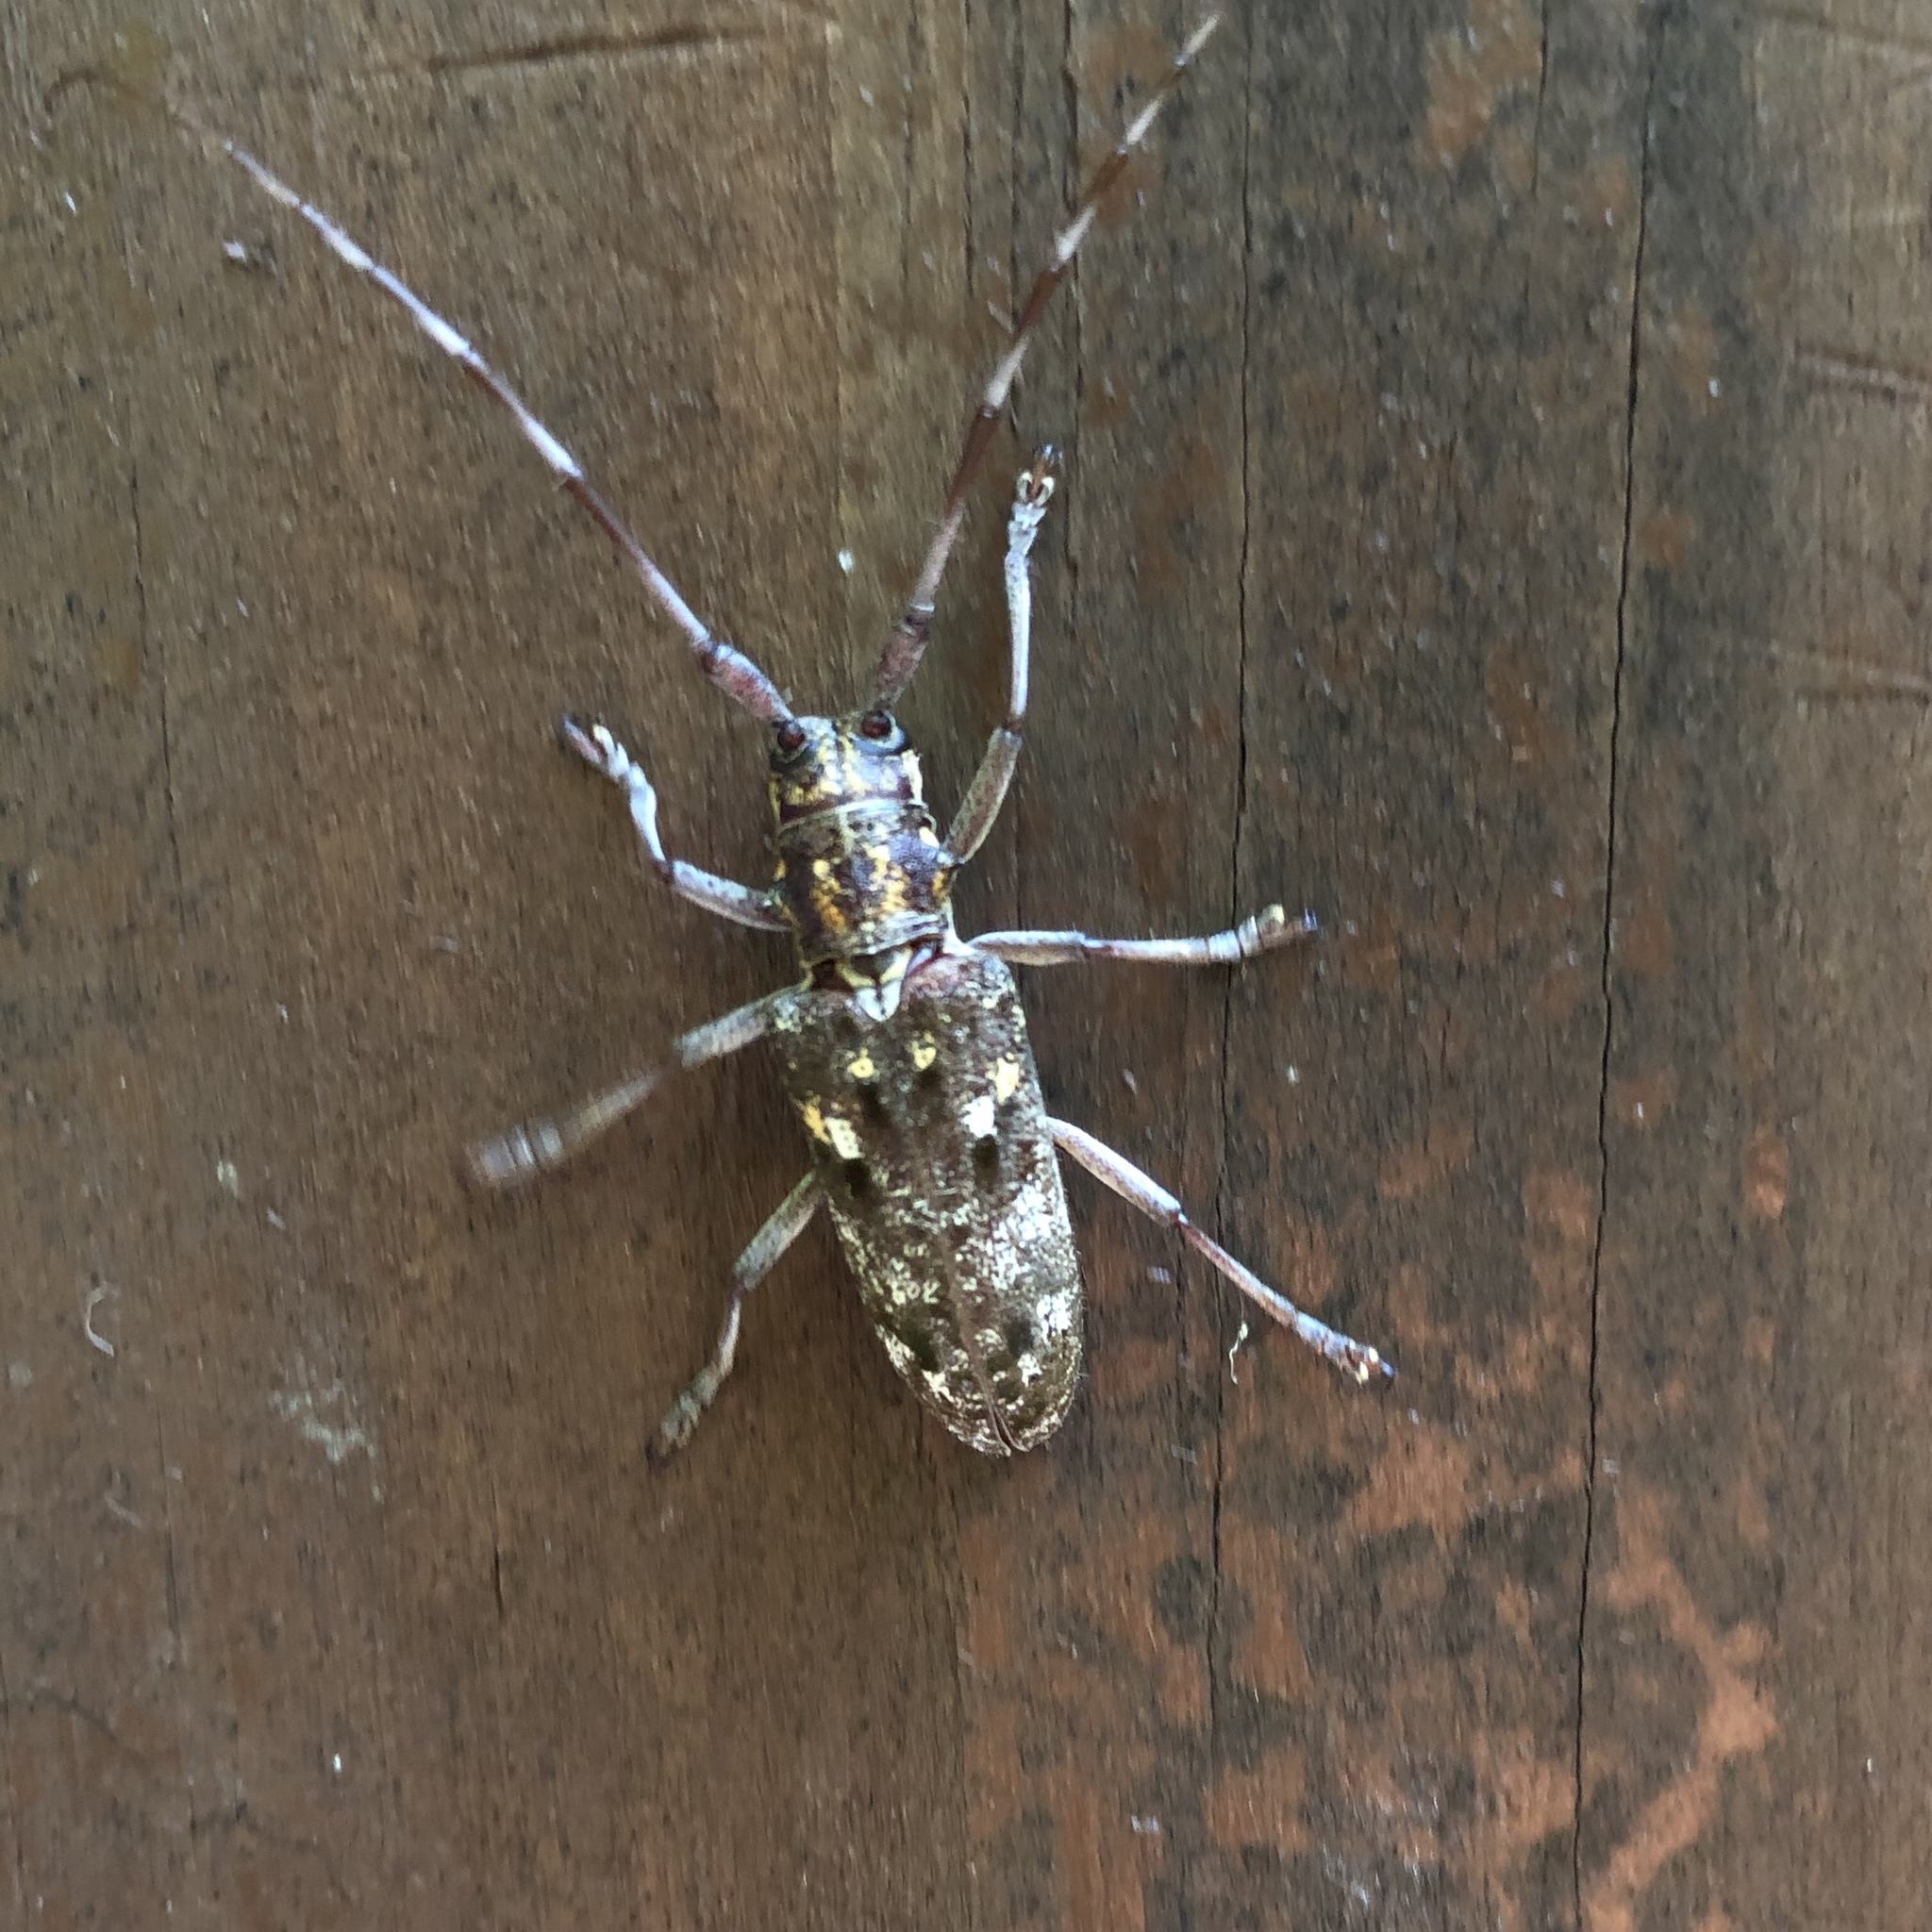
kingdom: Animalia
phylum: Arthropoda
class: Insecta
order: Coleoptera
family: Cerambycidae
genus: Monochamus
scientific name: Monochamus carolinensis
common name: Carolina pine sawyer
